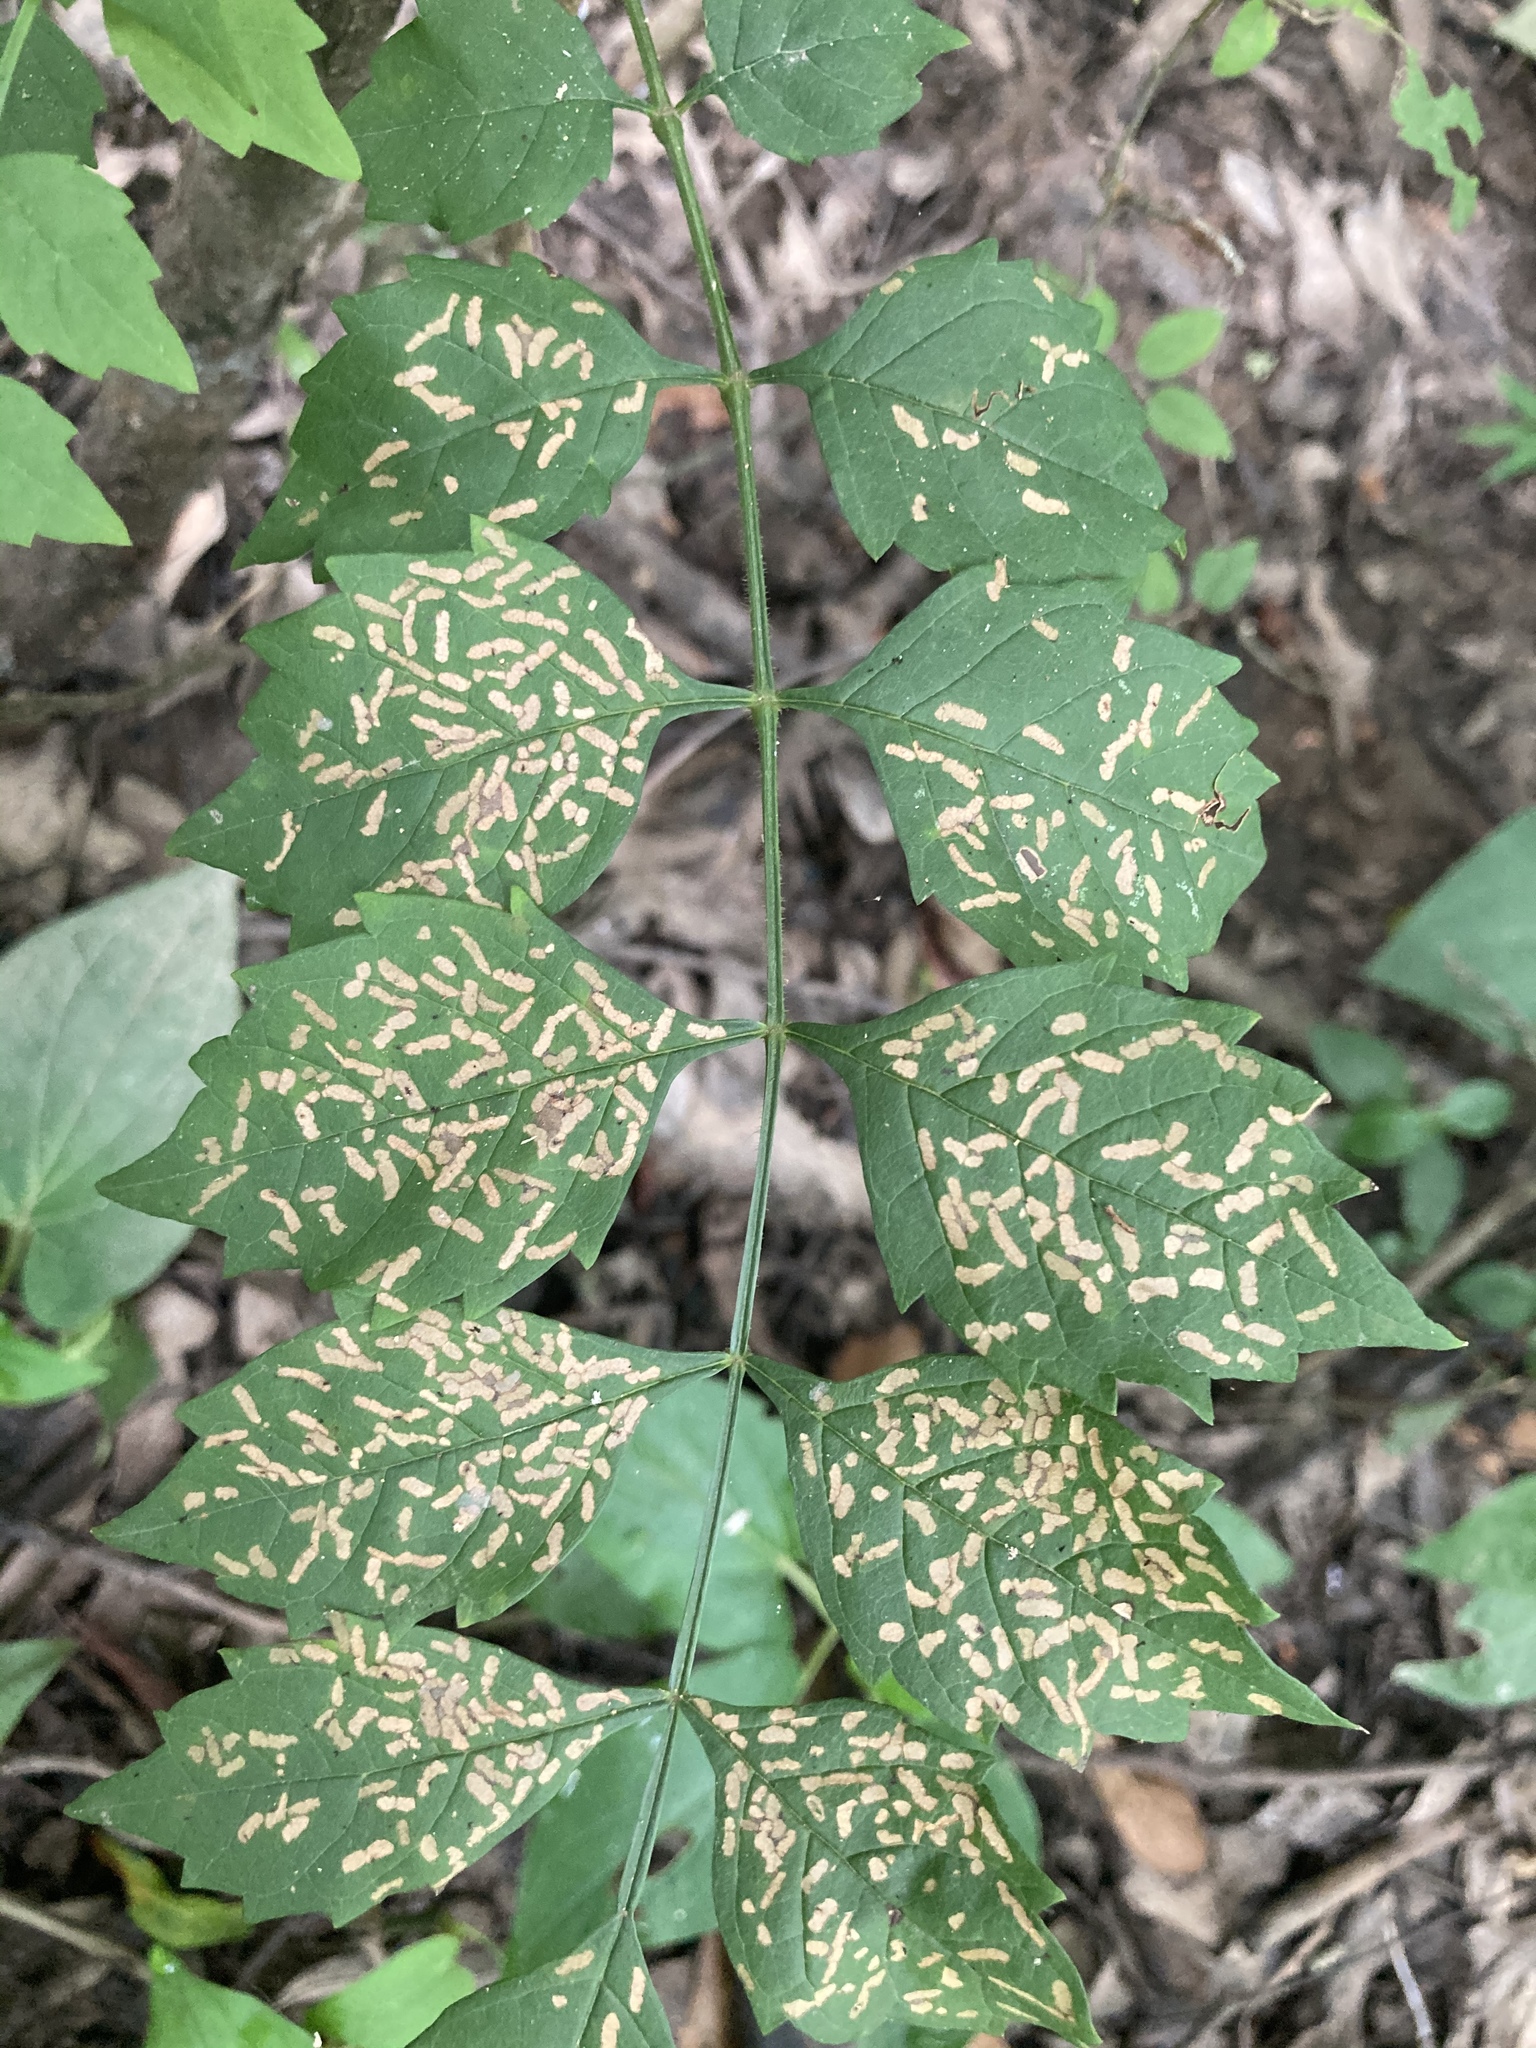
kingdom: Plantae
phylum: Tracheophyta
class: Magnoliopsida
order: Lamiales
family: Bignoniaceae
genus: Campsis
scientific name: Campsis radicans
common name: Trumpet-creeper
